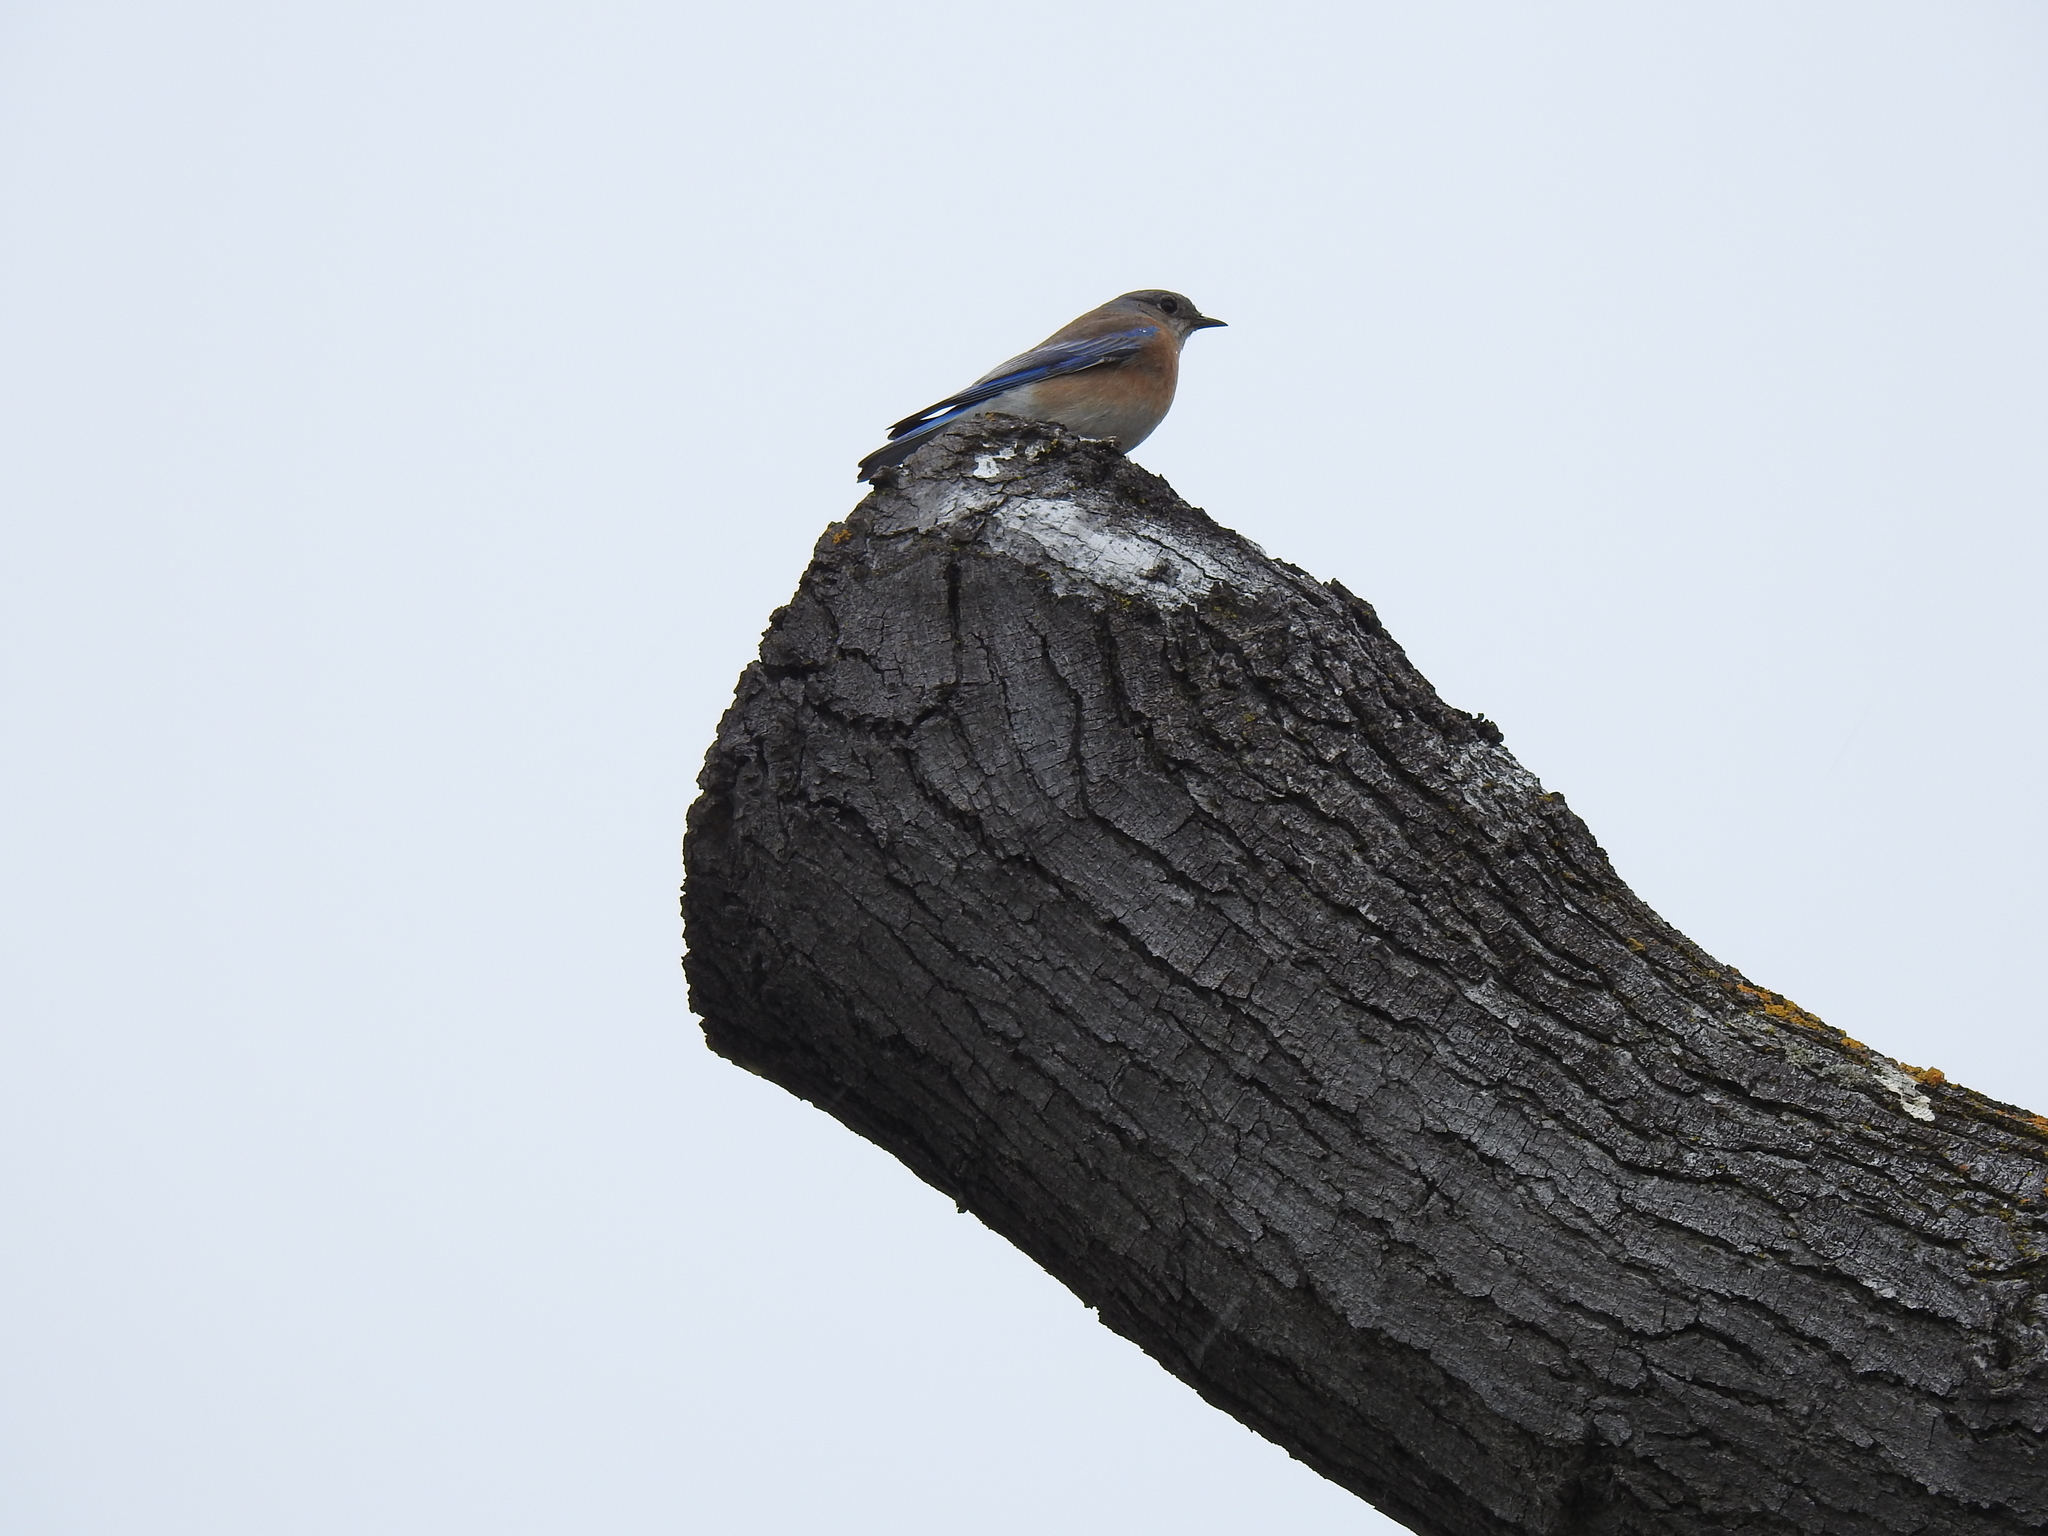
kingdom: Animalia
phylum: Chordata
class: Aves
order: Passeriformes
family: Turdidae
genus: Sialia
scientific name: Sialia mexicana
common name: Western bluebird
